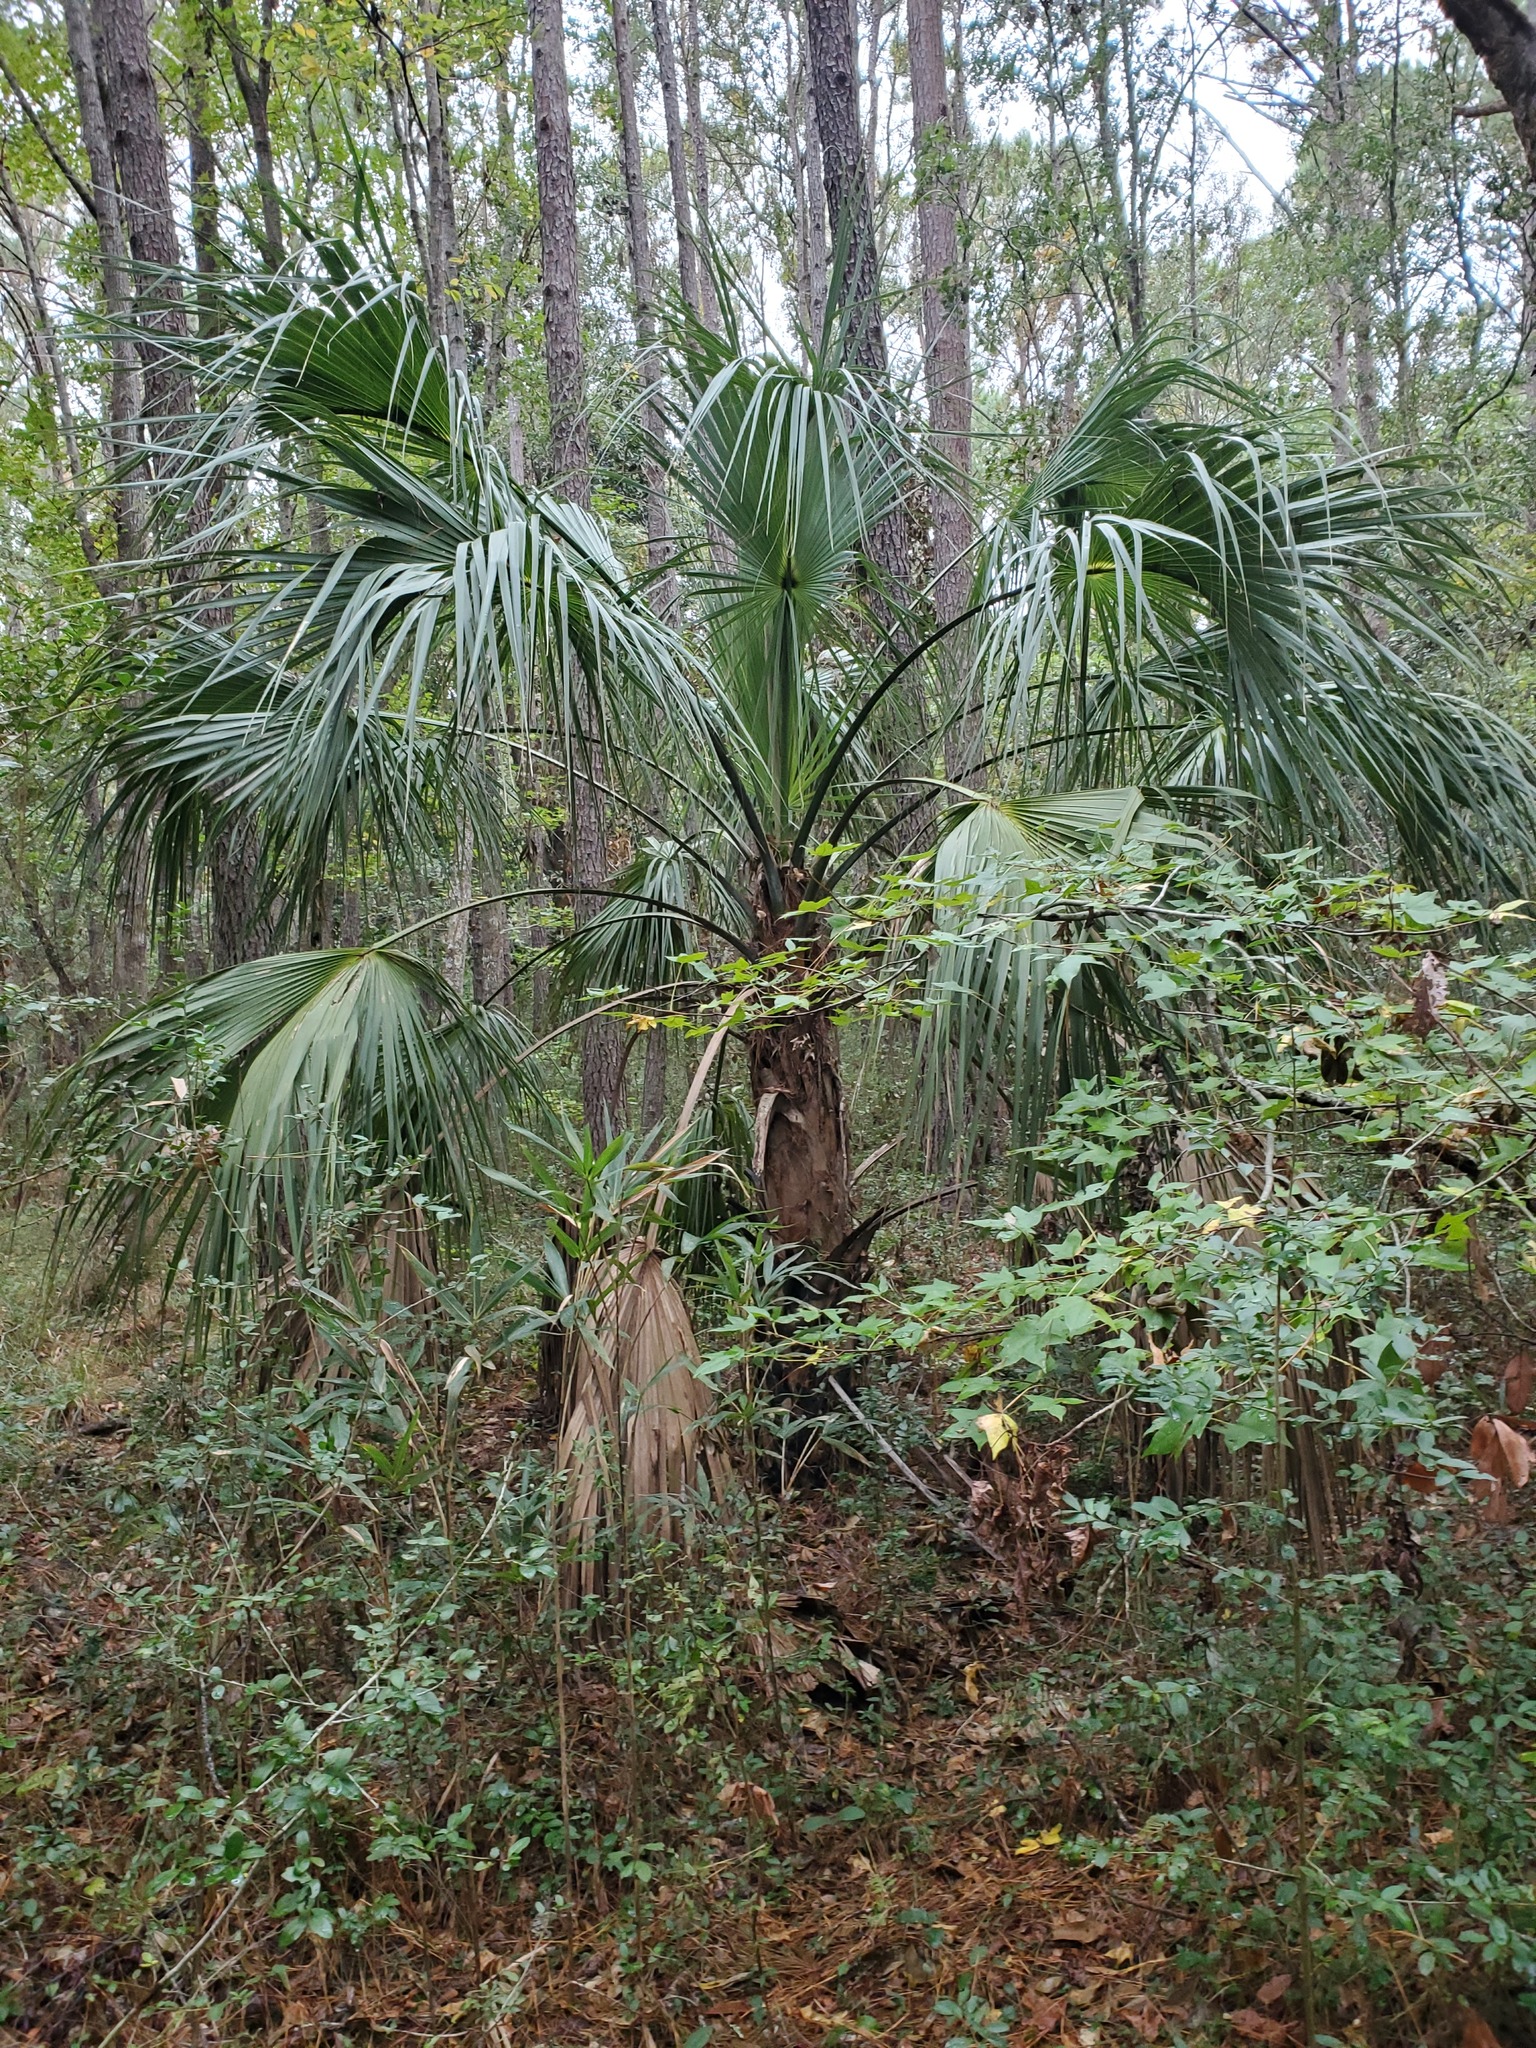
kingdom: Plantae
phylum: Tracheophyta
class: Liliopsida
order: Arecales
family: Arecaceae
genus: Sabal
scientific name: Sabal palmetto
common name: Blue palmetto
